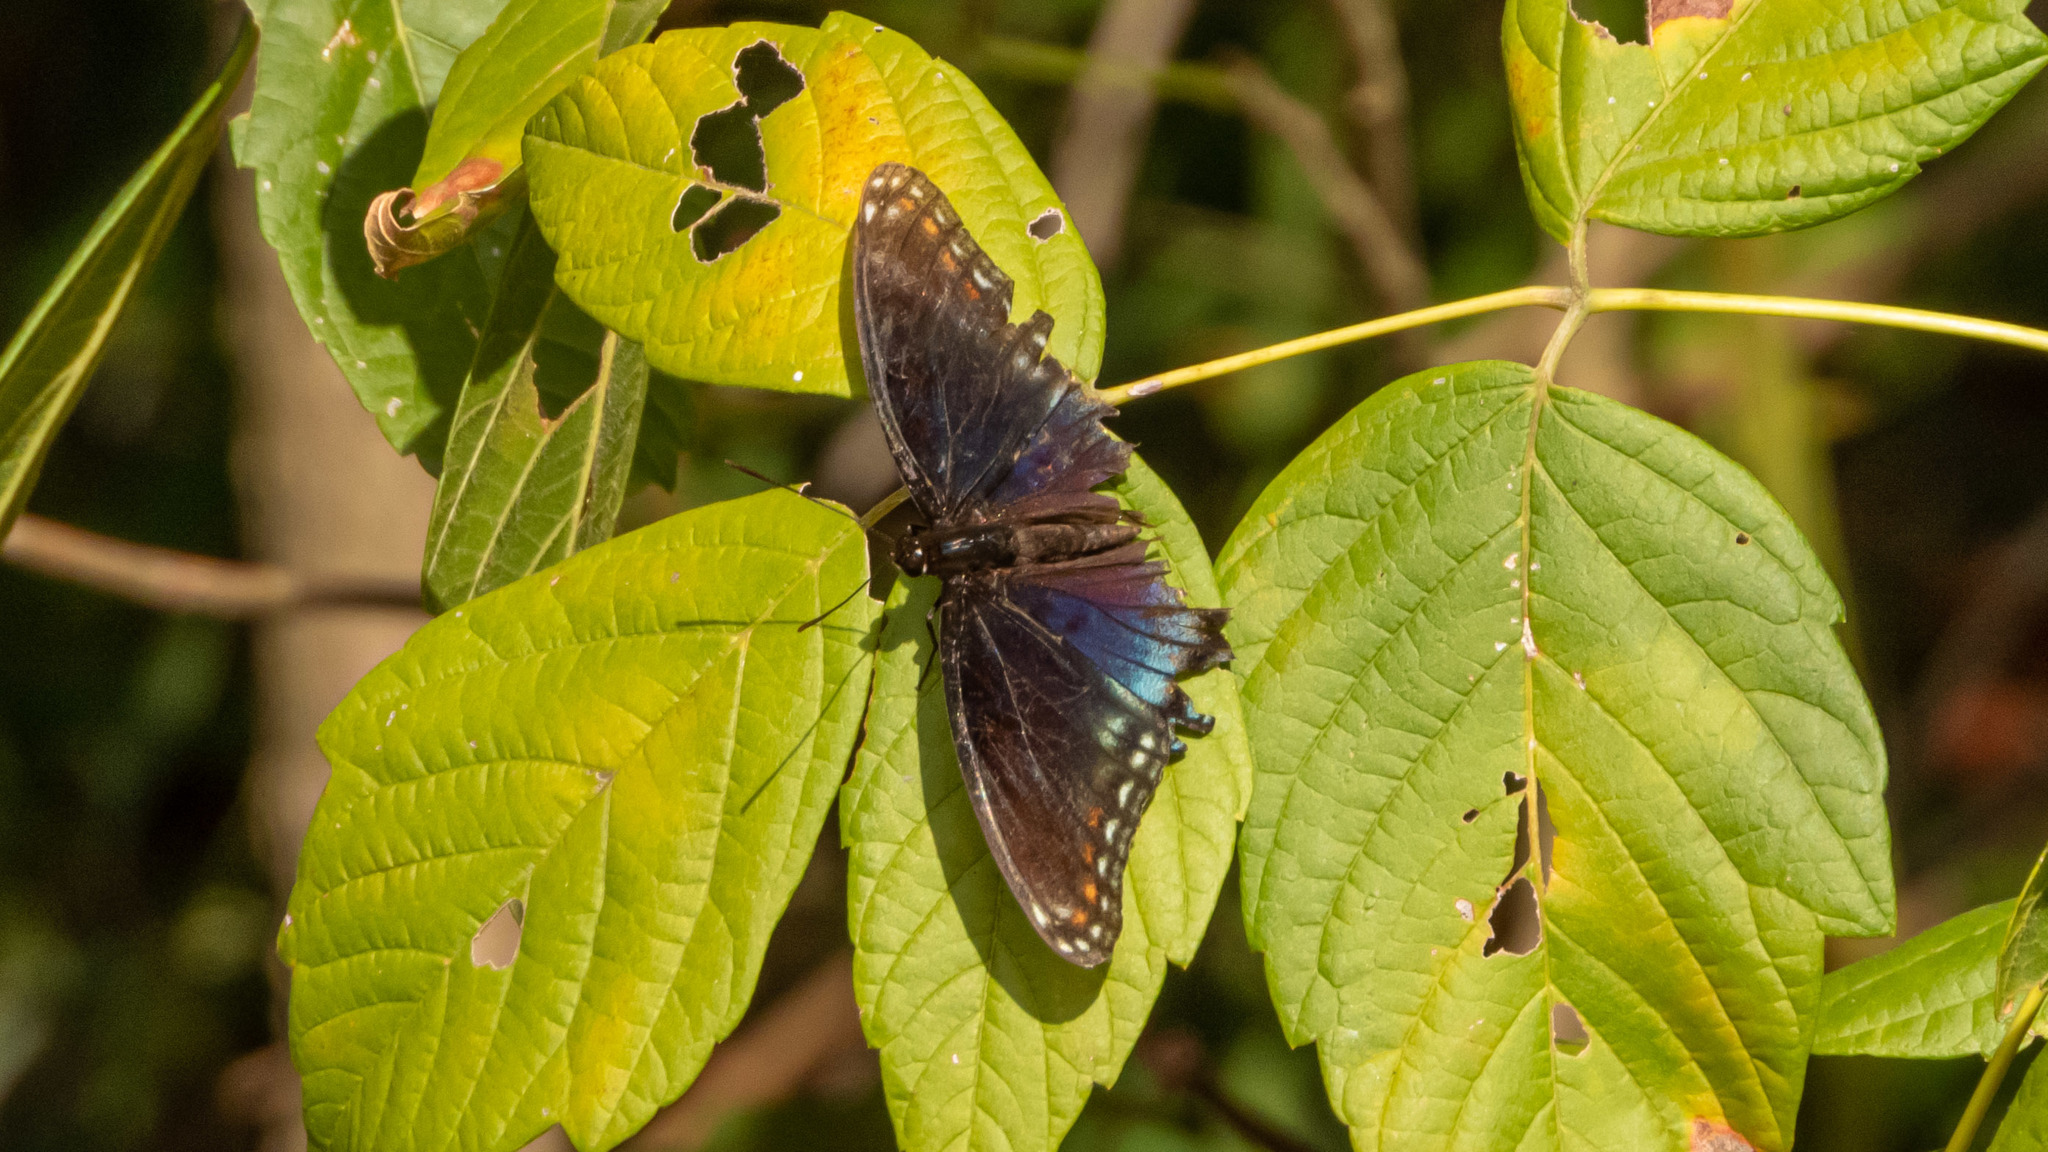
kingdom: Animalia
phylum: Arthropoda
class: Insecta
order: Lepidoptera
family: Nymphalidae
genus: Limenitis
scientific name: Limenitis astyanax
